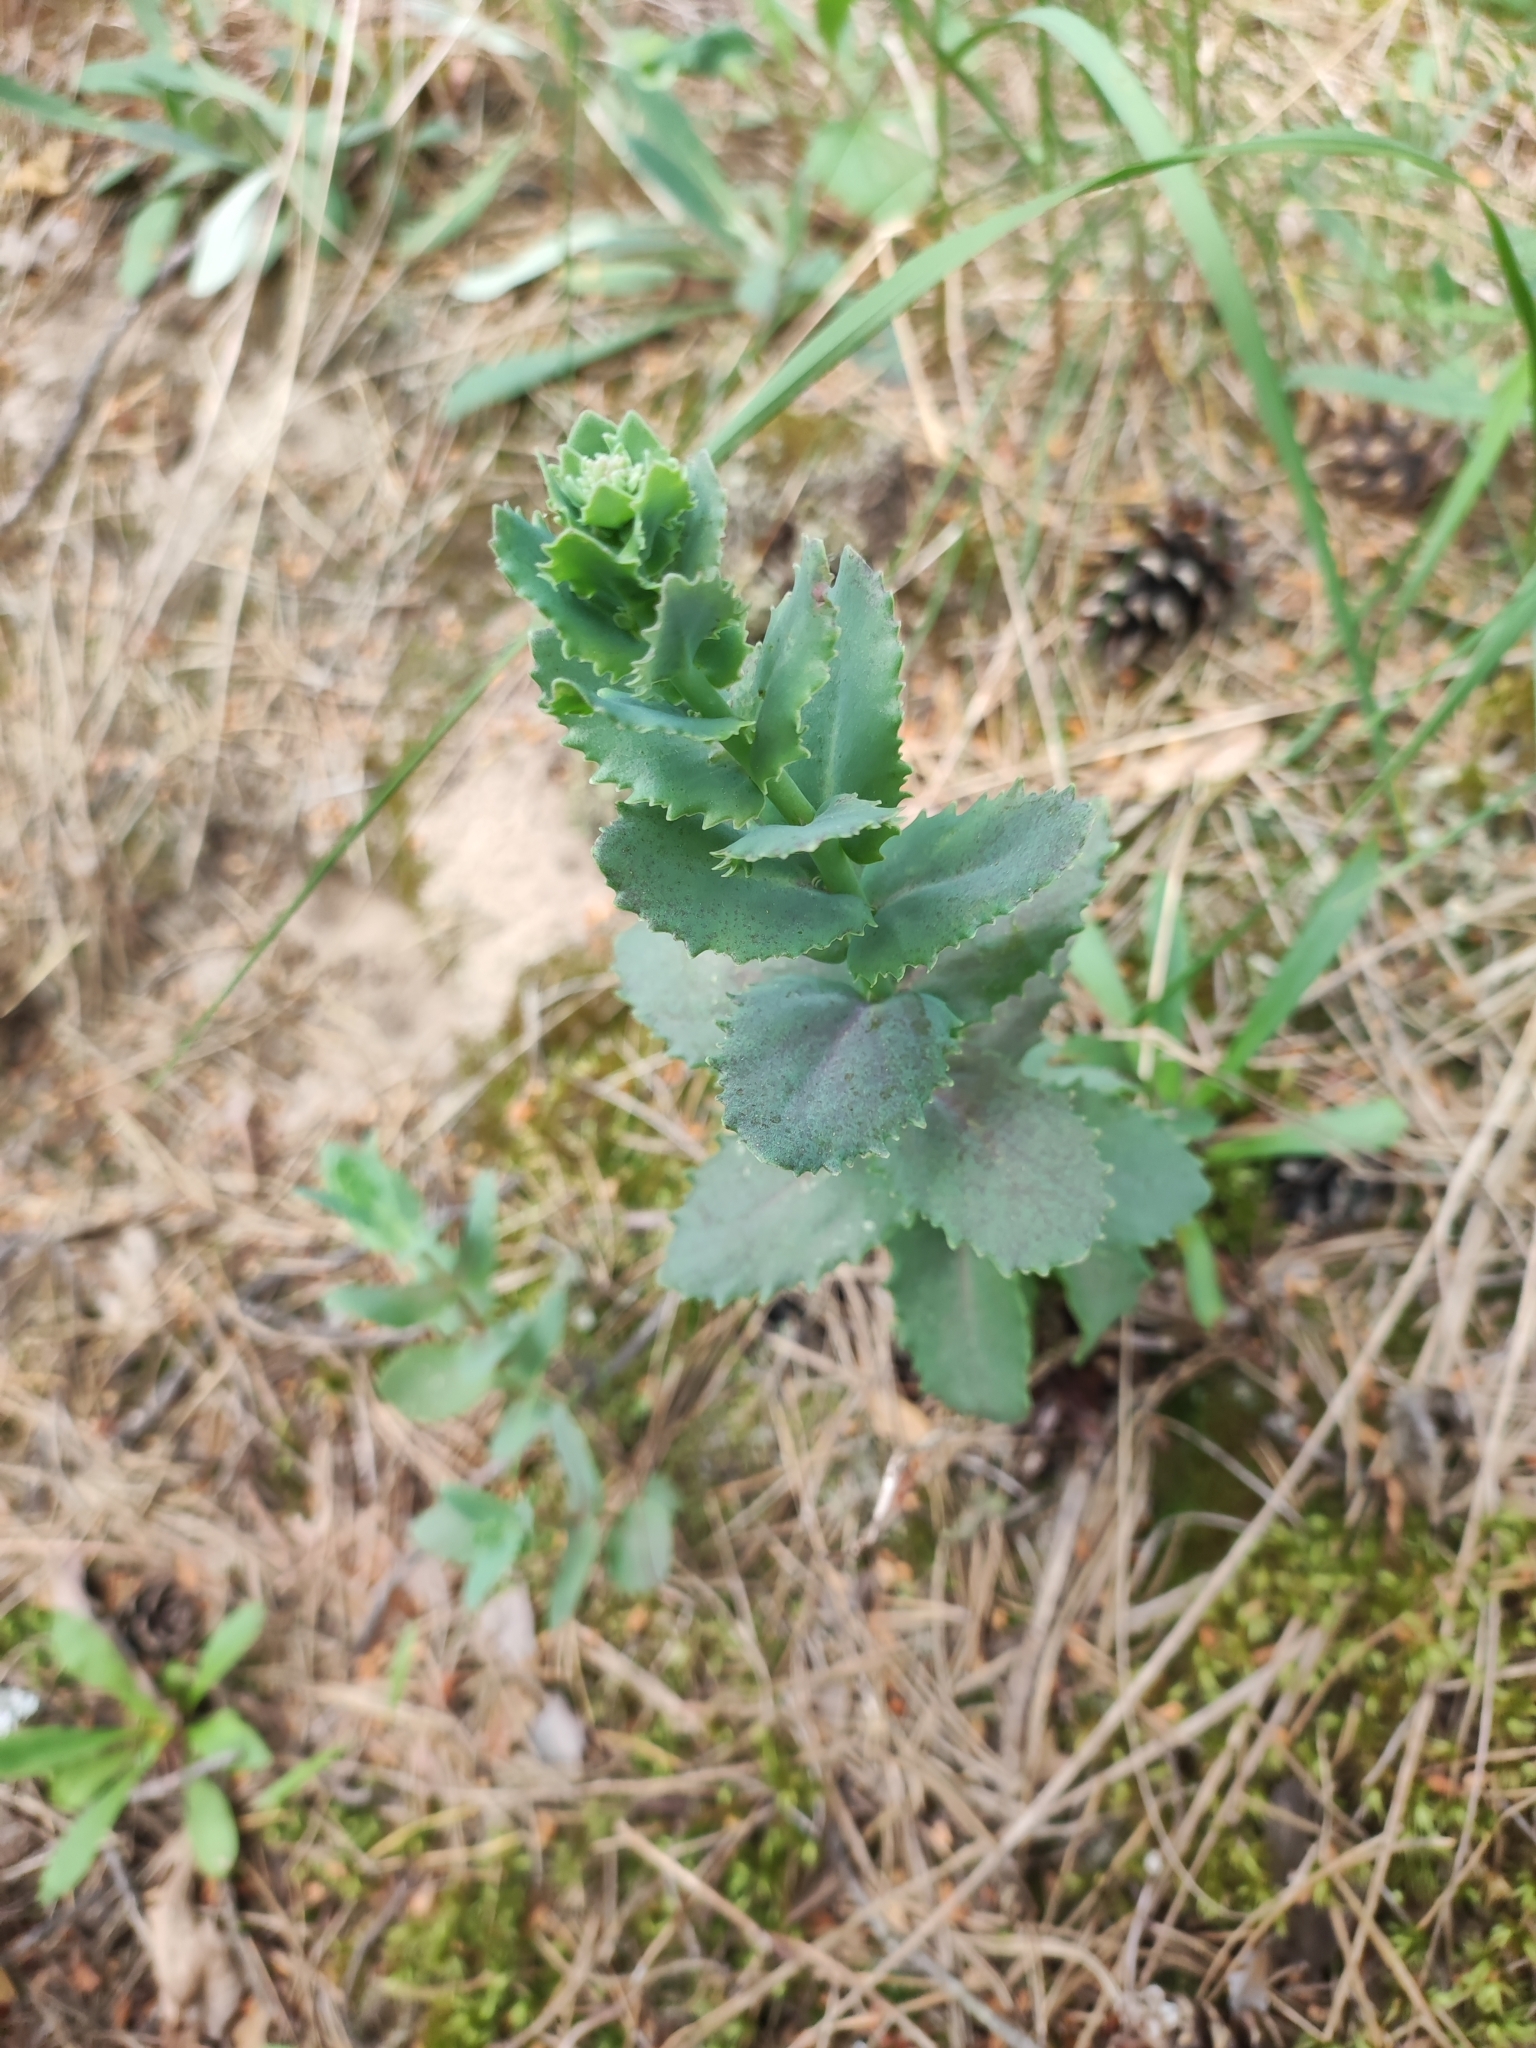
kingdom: Plantae
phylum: Tracheophyta
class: Magnoliopsida
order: Saxifragales
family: Crassulaceae
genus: Hylotelephium
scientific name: Hylotelephium maximum
